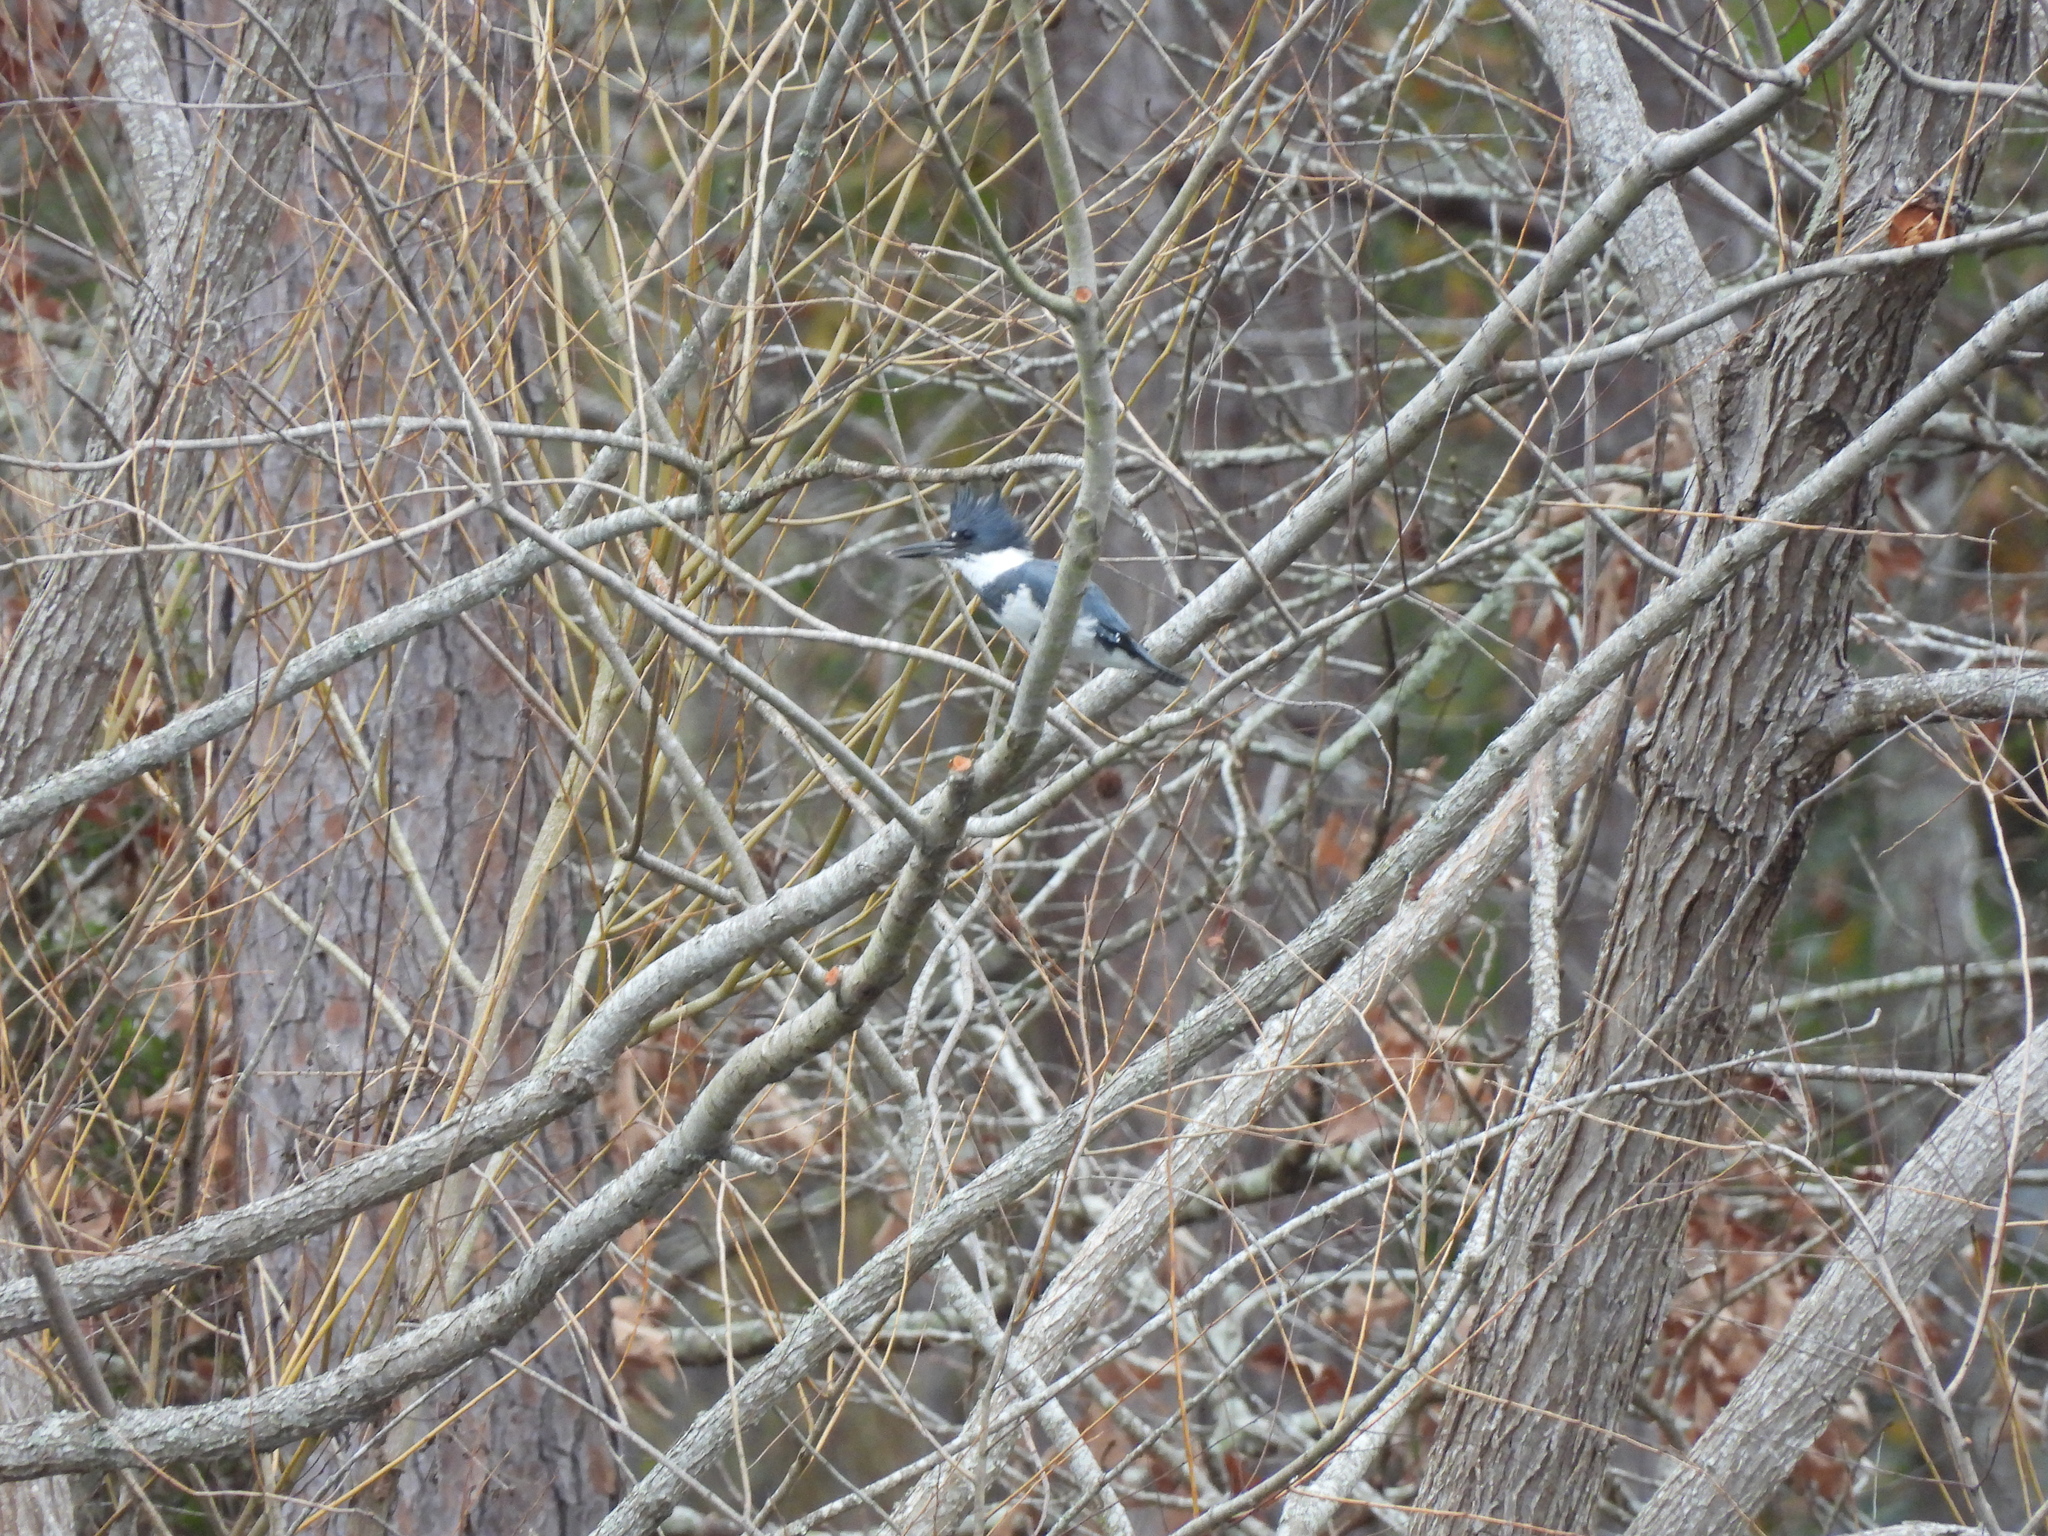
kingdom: Animalia
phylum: Chordata
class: Aves
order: Coraciiformes
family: Alcedinidae
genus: Megaceryle
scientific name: Megaceryle alcyon
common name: Belted kingfisher
